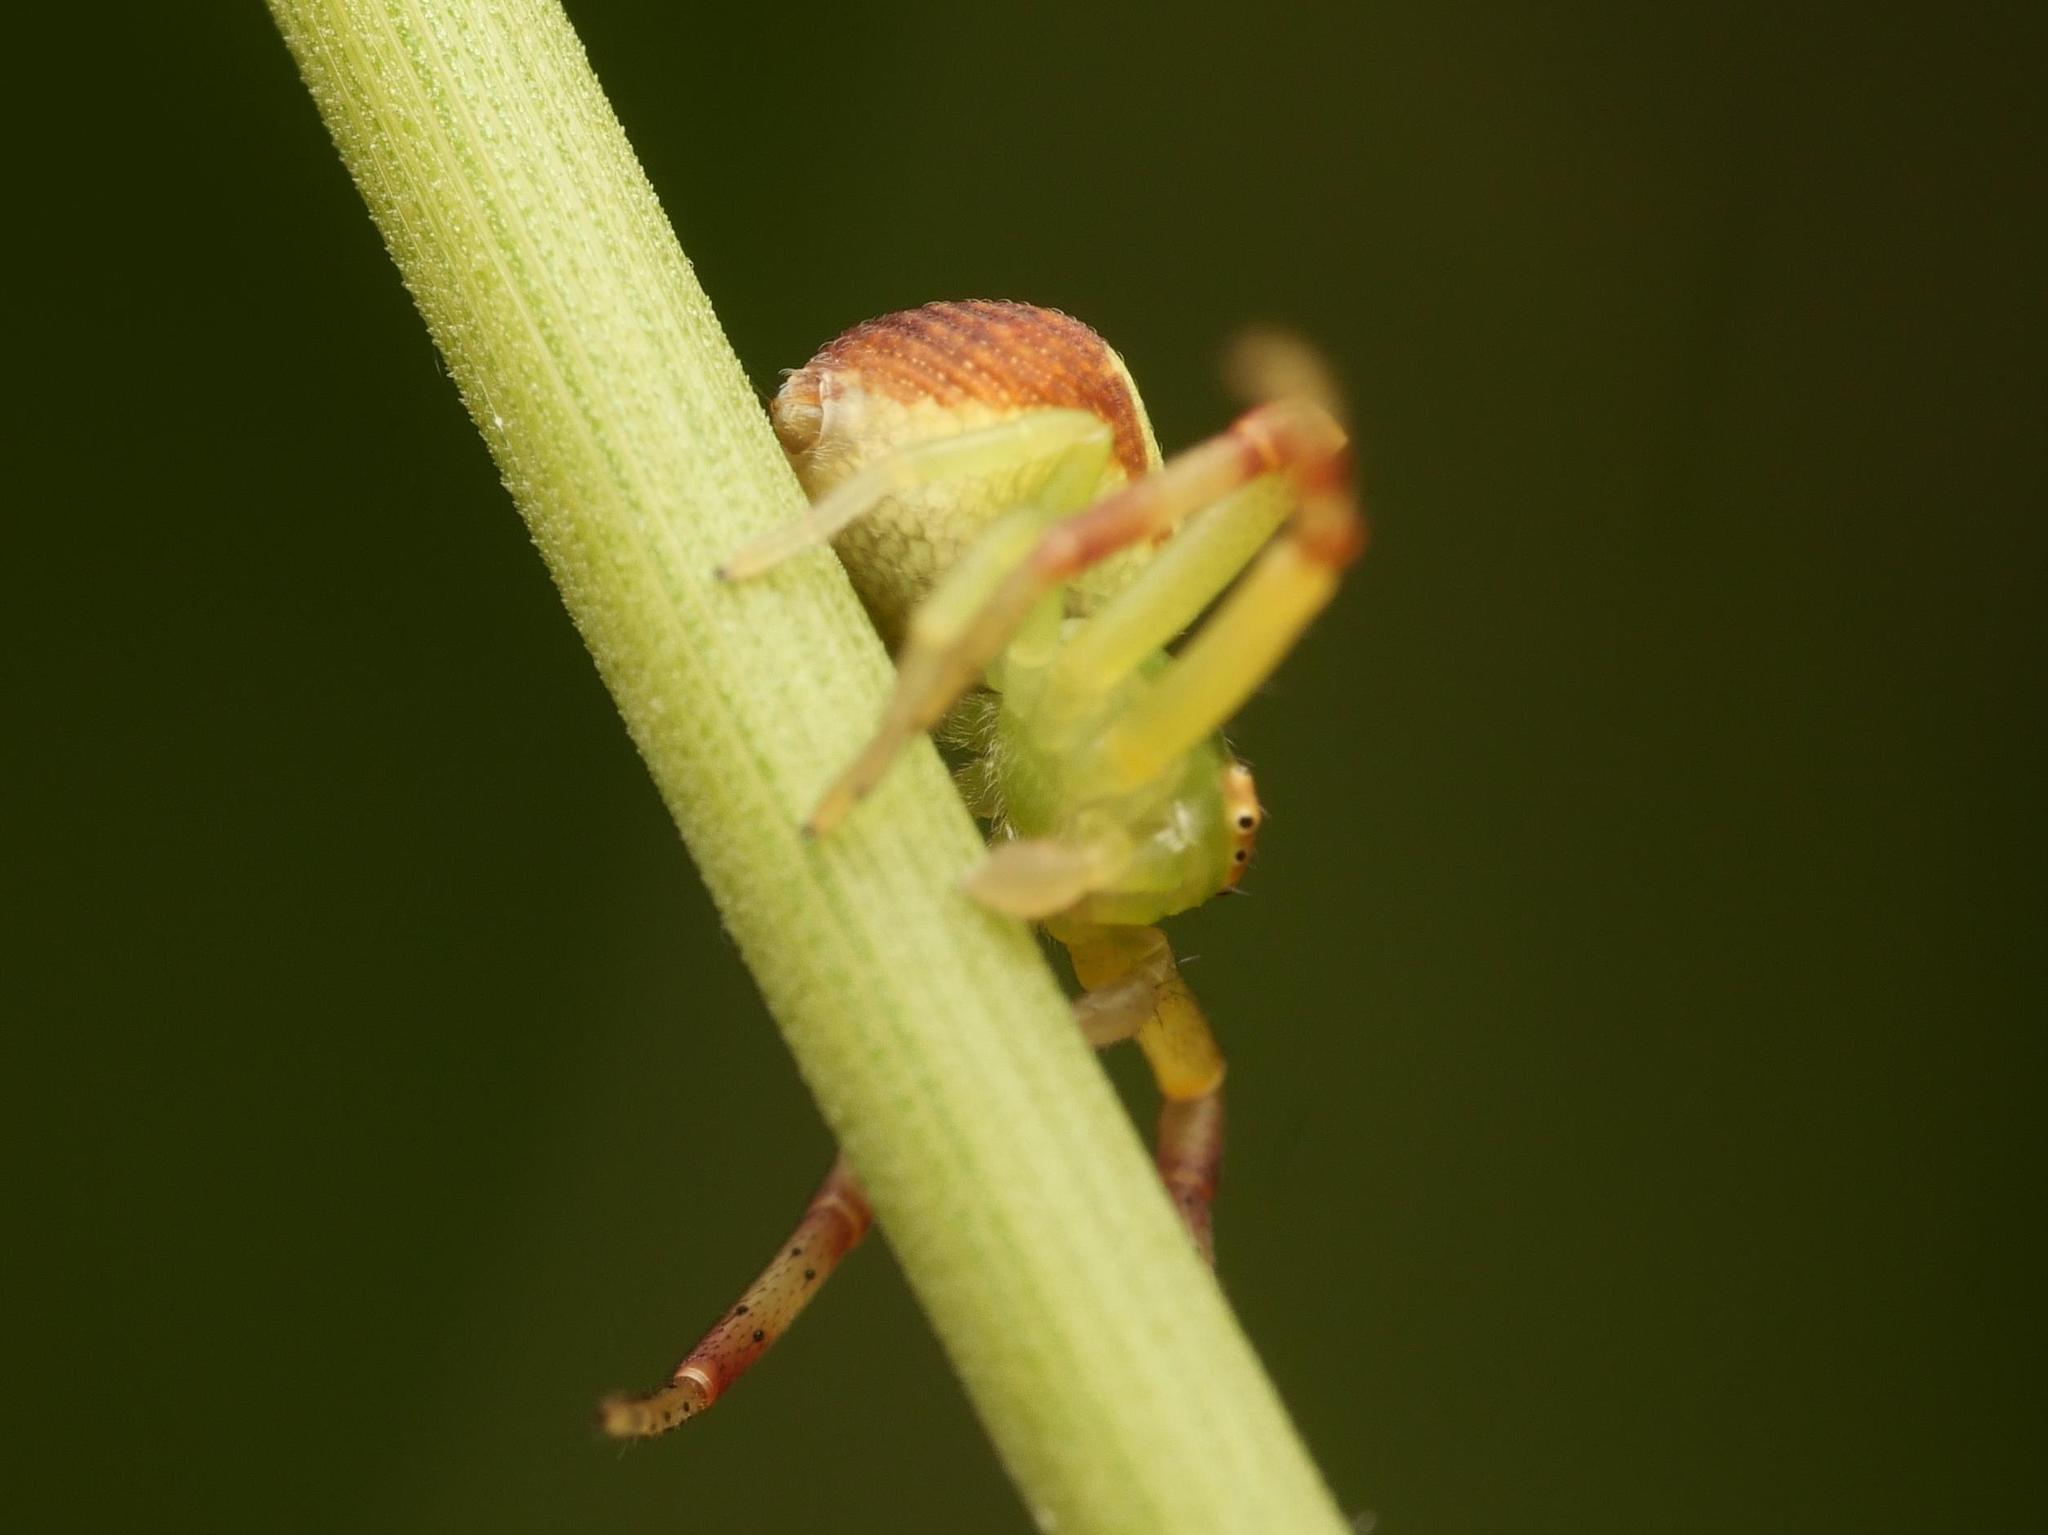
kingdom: Animalia
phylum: Arthropoda
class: Arachnida
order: Araneae
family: Thomisidae
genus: Ebrechtella
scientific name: Ebrechtella tricuspidata
